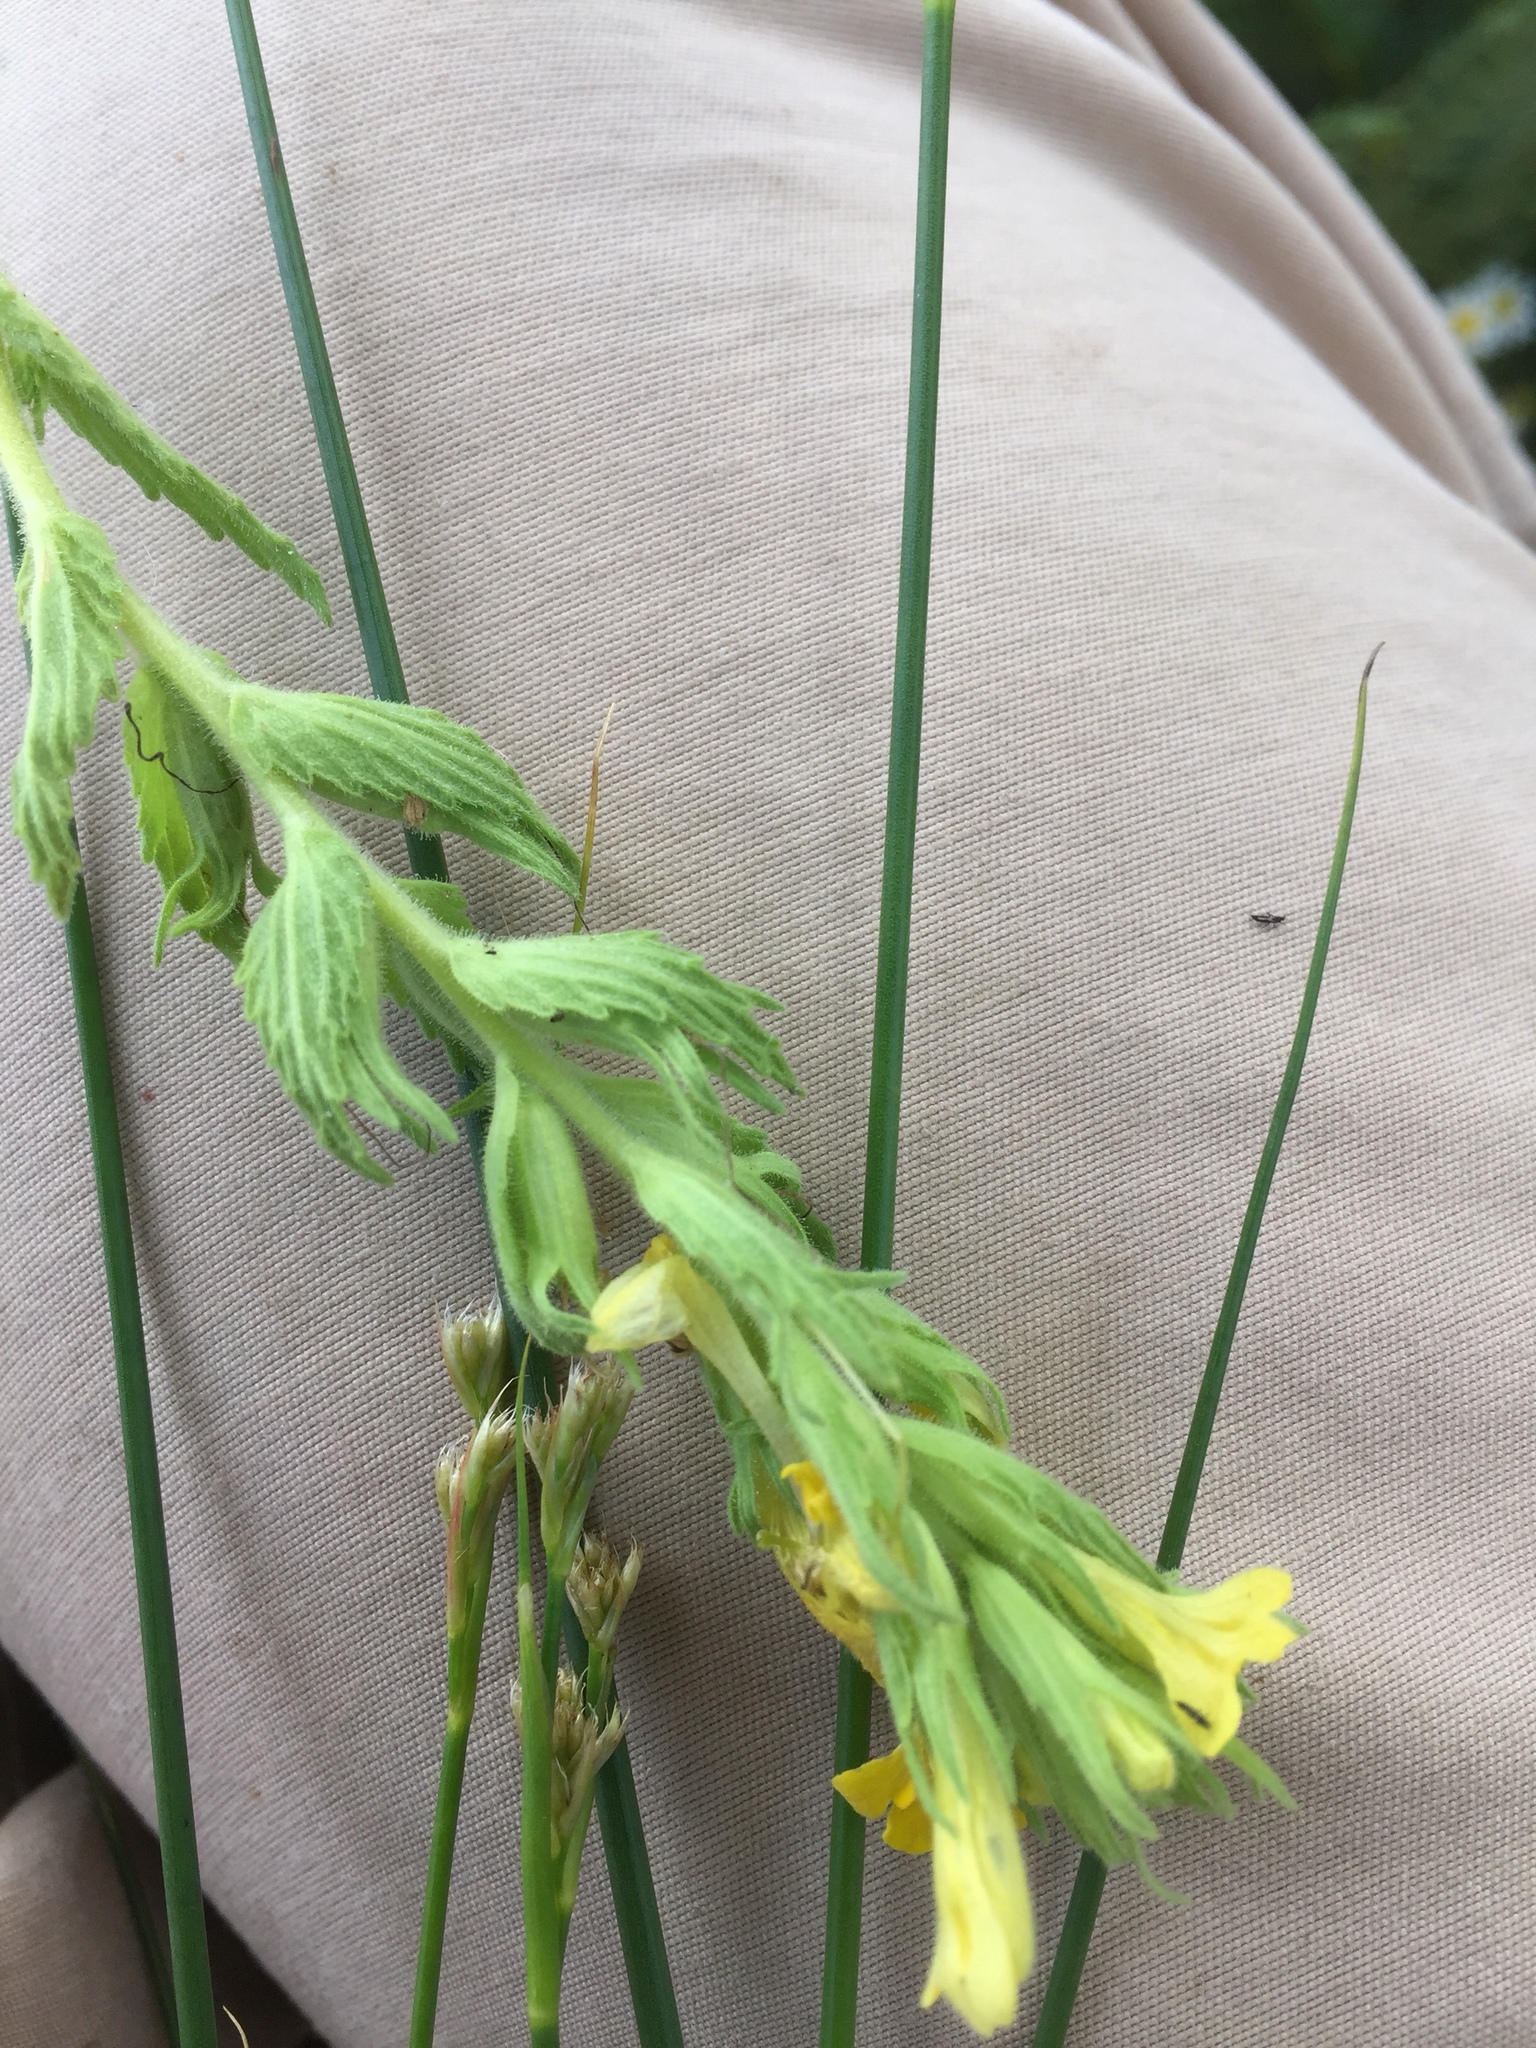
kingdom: Plantae
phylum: Tracheophyta
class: Magnoliopsida
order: Lamiales
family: Orobanchaceae
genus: Bellardia
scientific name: Bellardia viscosa
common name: Sticky parentucellia
